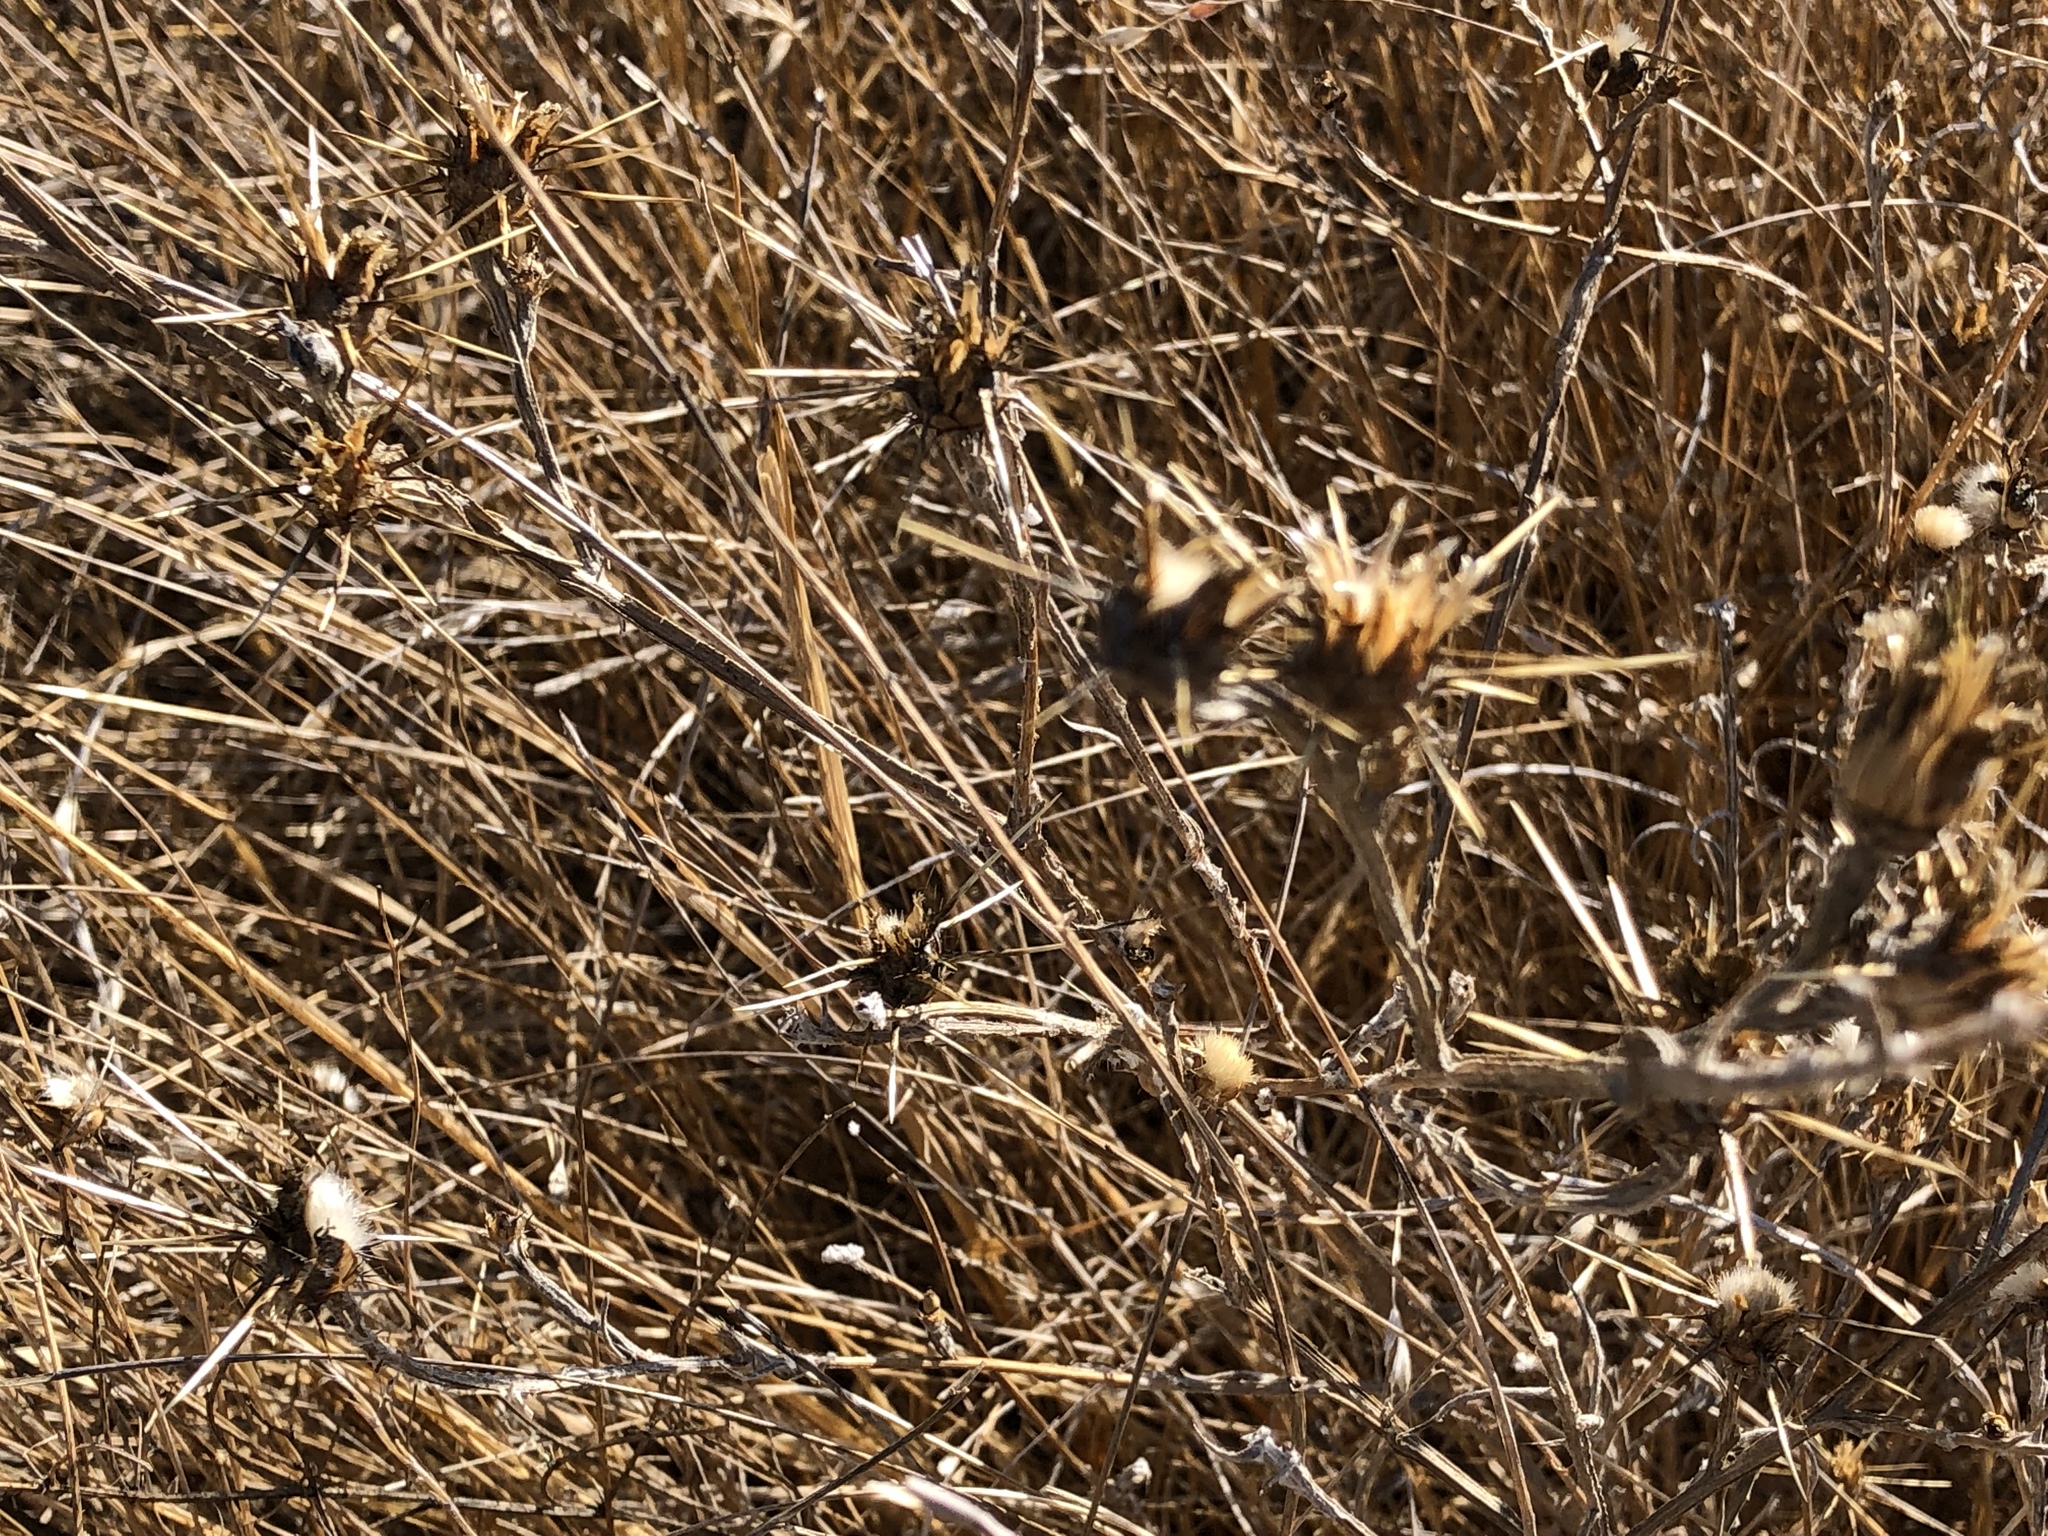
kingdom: Plantae
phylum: Tracheophyta
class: Magnoliopsida
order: Asterales
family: Asteraceae
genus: Centaurea
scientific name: Centaurea solstitialis
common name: Yellow star-thistle
